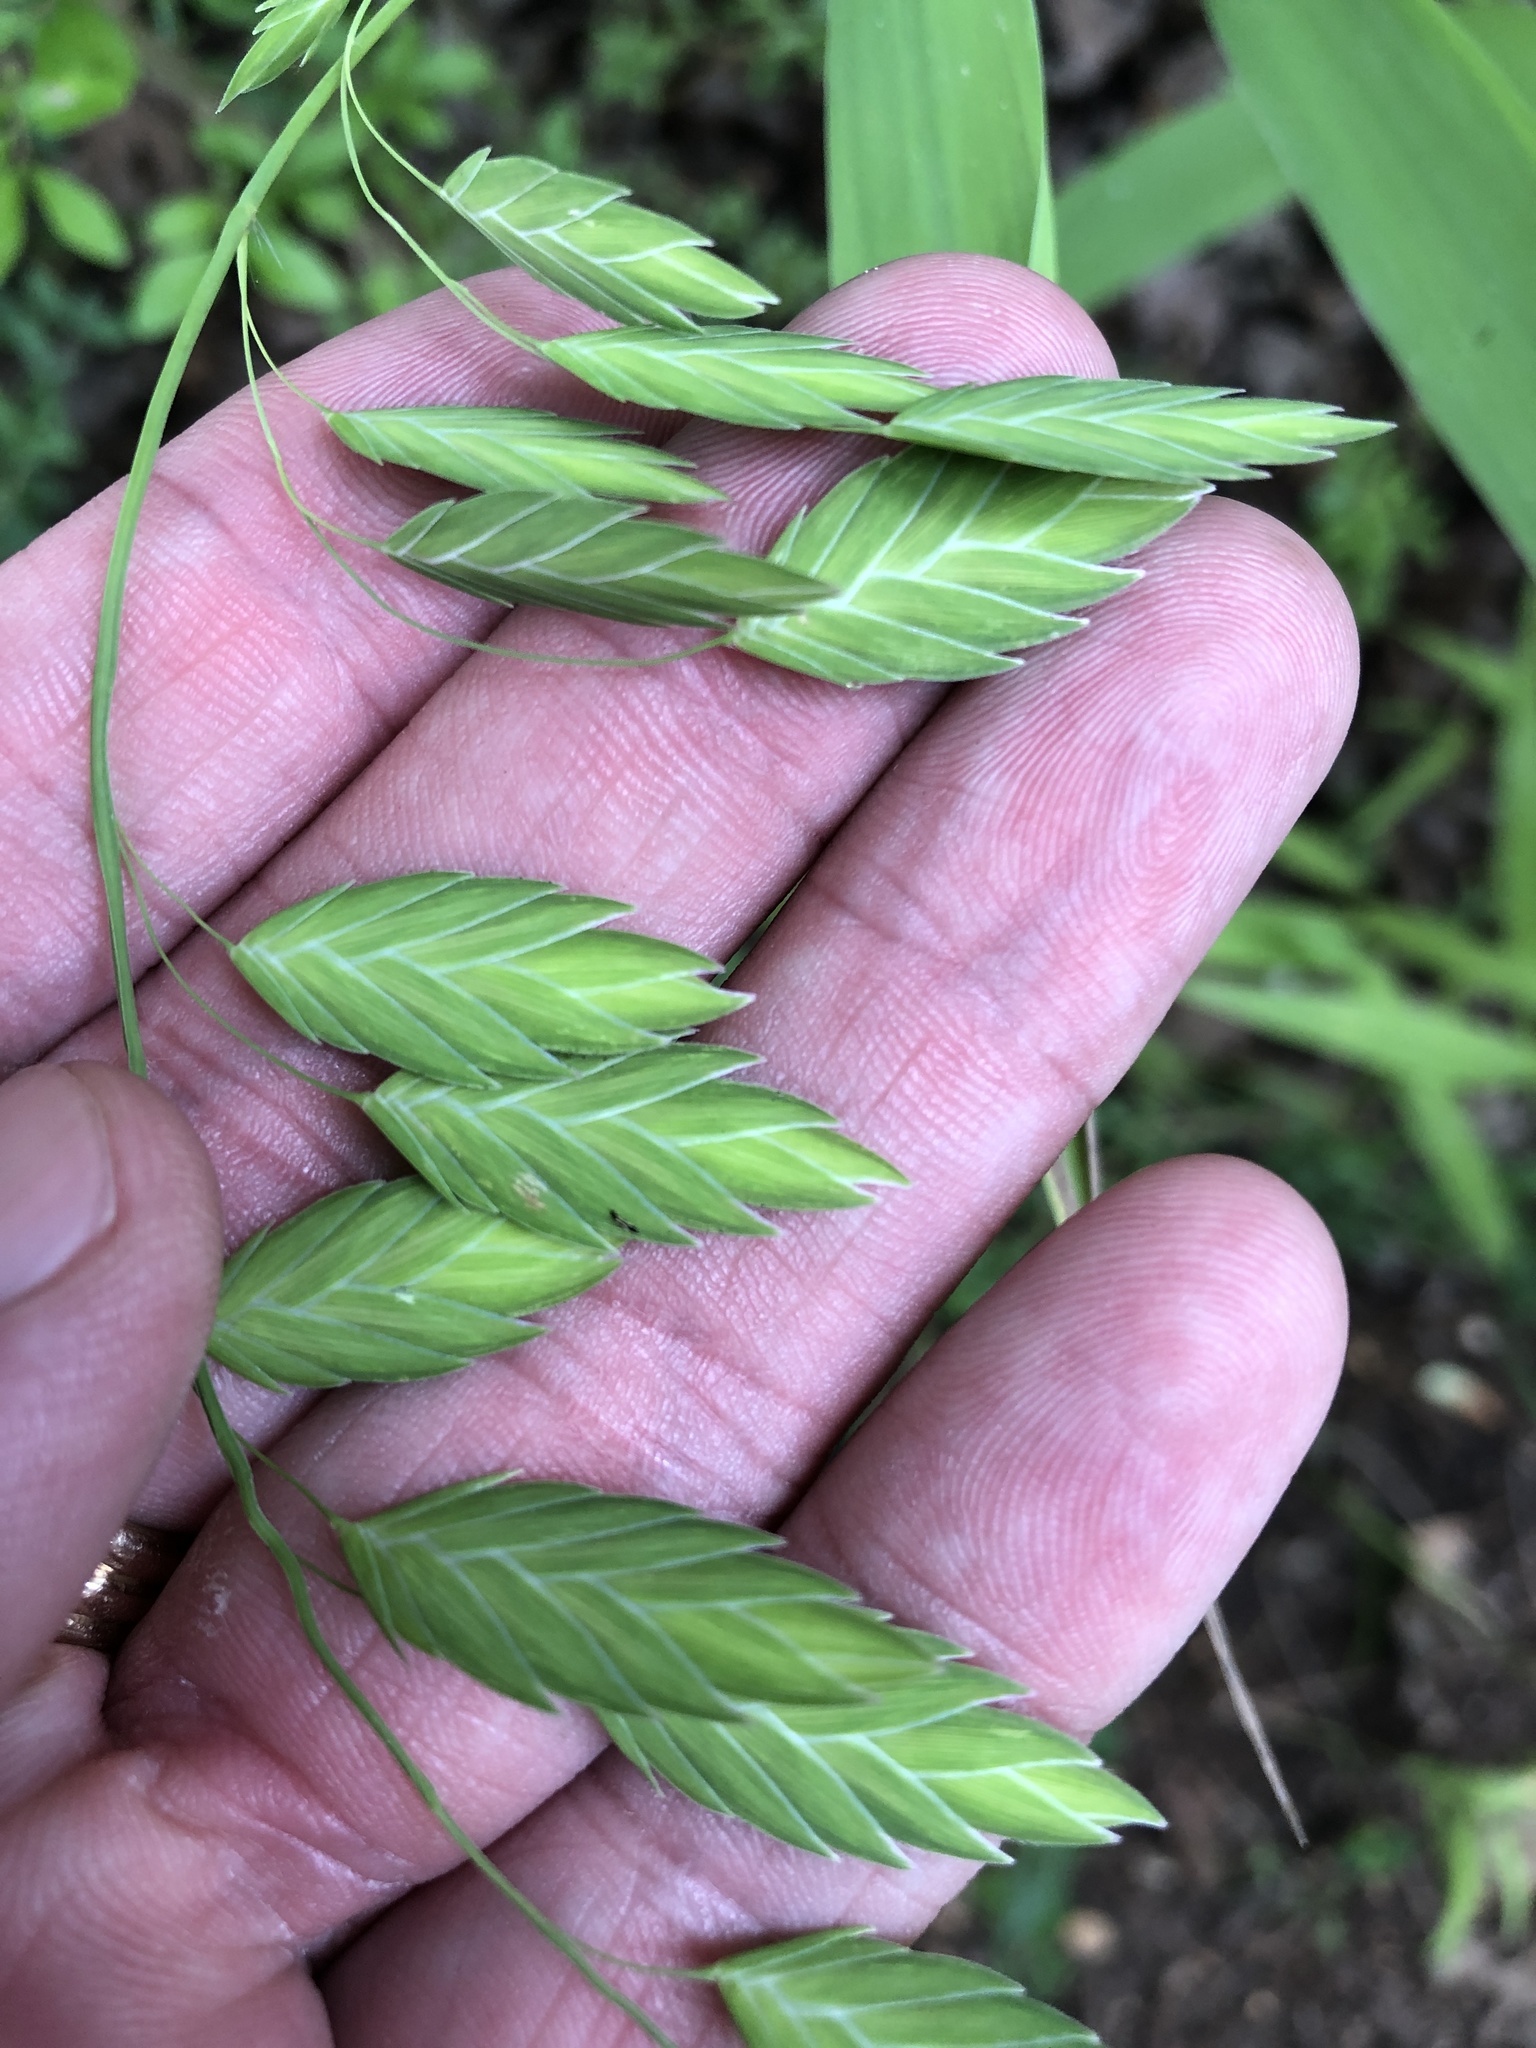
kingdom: Plantae
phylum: Tracheophyta
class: Liliopsida
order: Poales
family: Poaceae
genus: Chasmanthium
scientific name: Chasmanthium latifolium
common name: Broad-leaved chasmanthium
